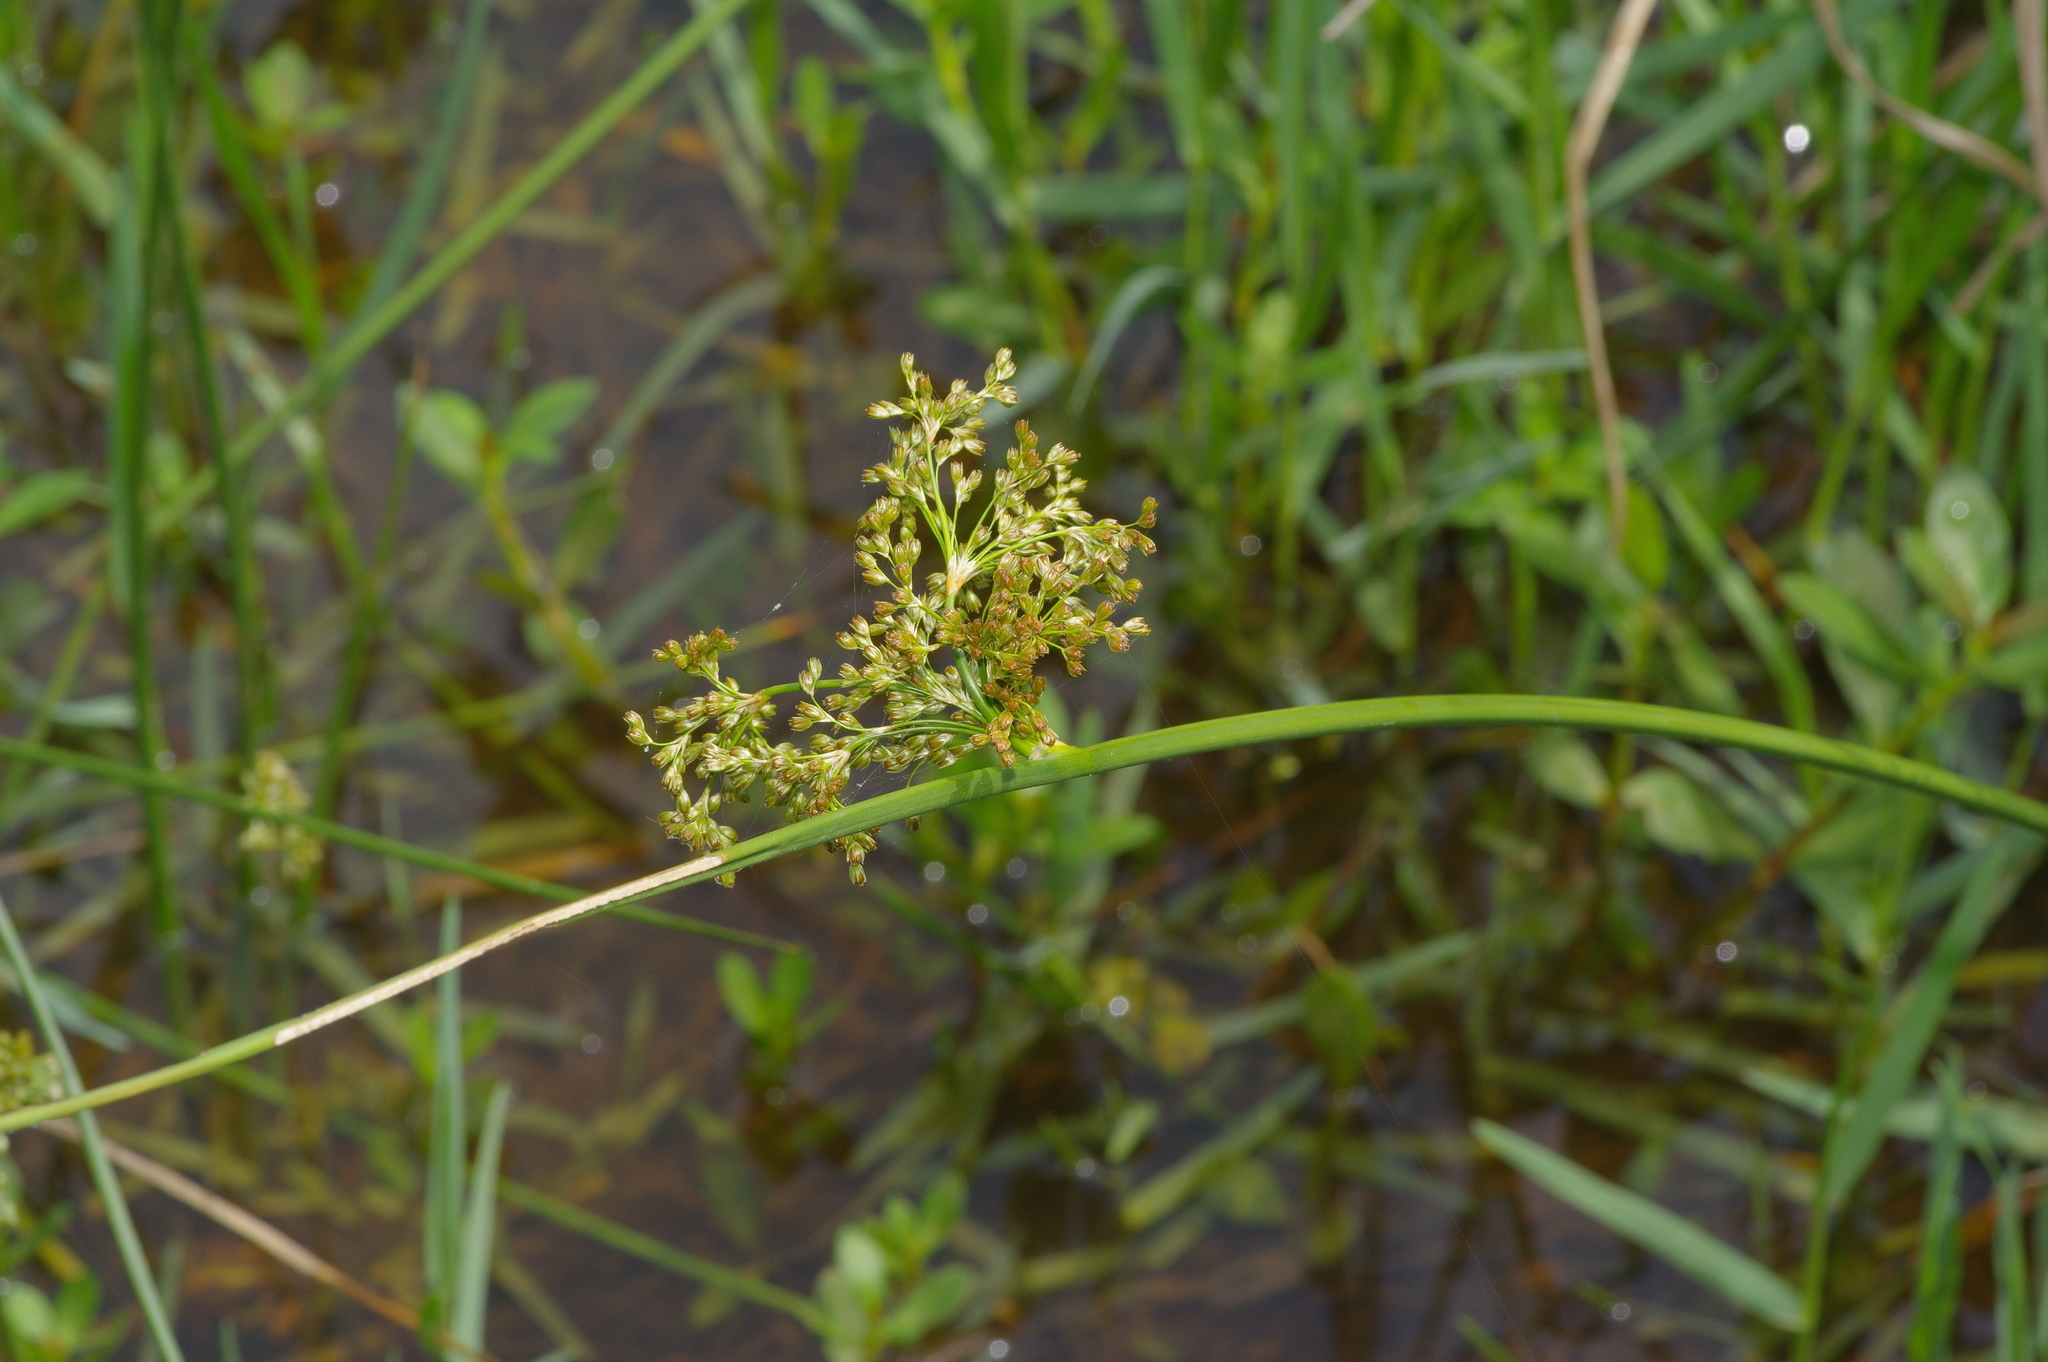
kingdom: Plantae
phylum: Tracheophyta
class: Liliopsida
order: Poales
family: Juncaceae
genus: Juncus
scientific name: Juncus effusus
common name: Soft rush
